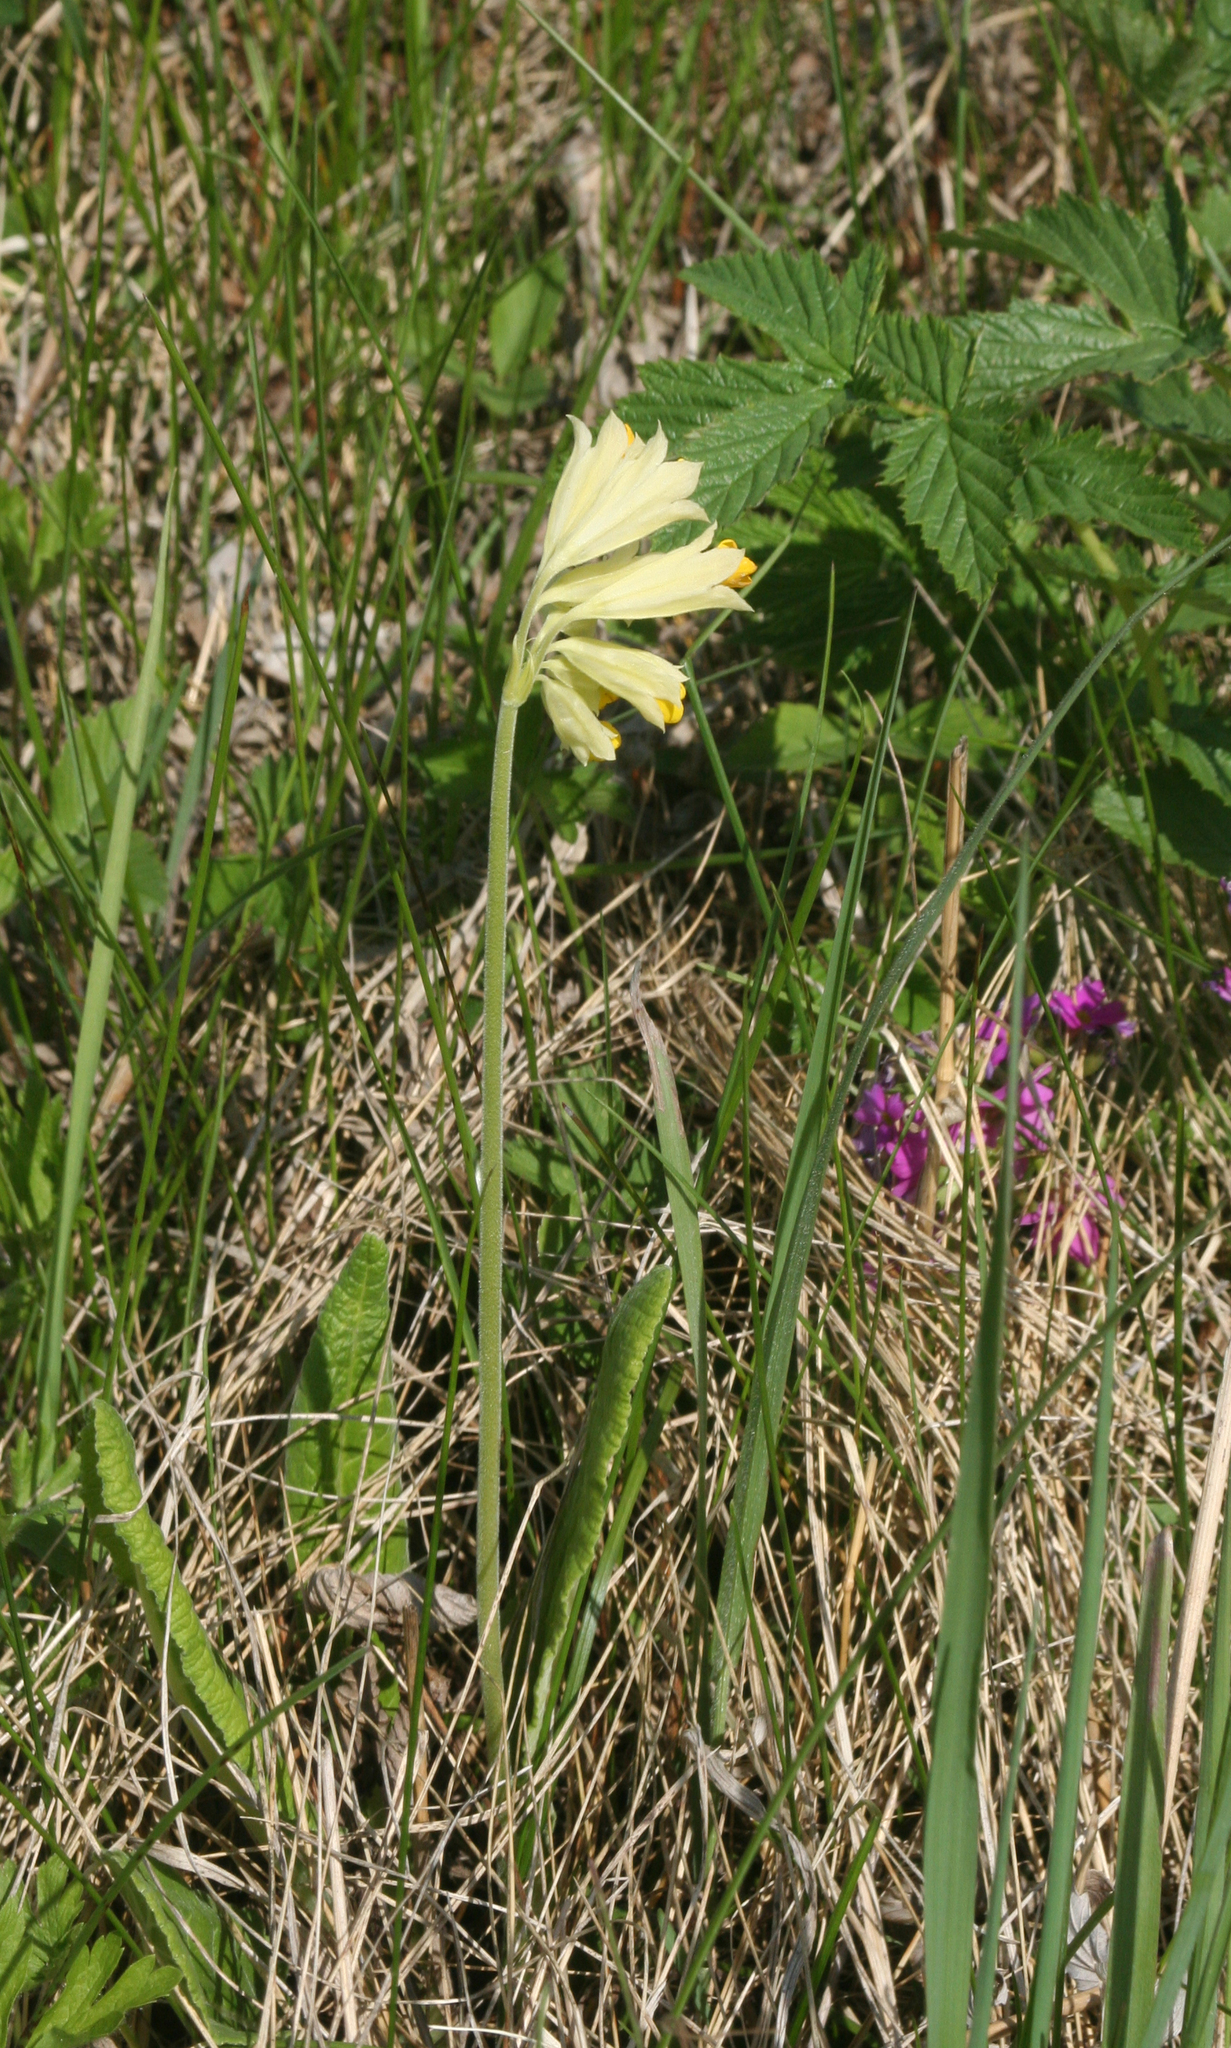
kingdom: Plantae
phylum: Tracheophyta
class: Magnoliopsida
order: Ericales
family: Primulaceae
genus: Primula
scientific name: Primula veris
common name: Cowslip
